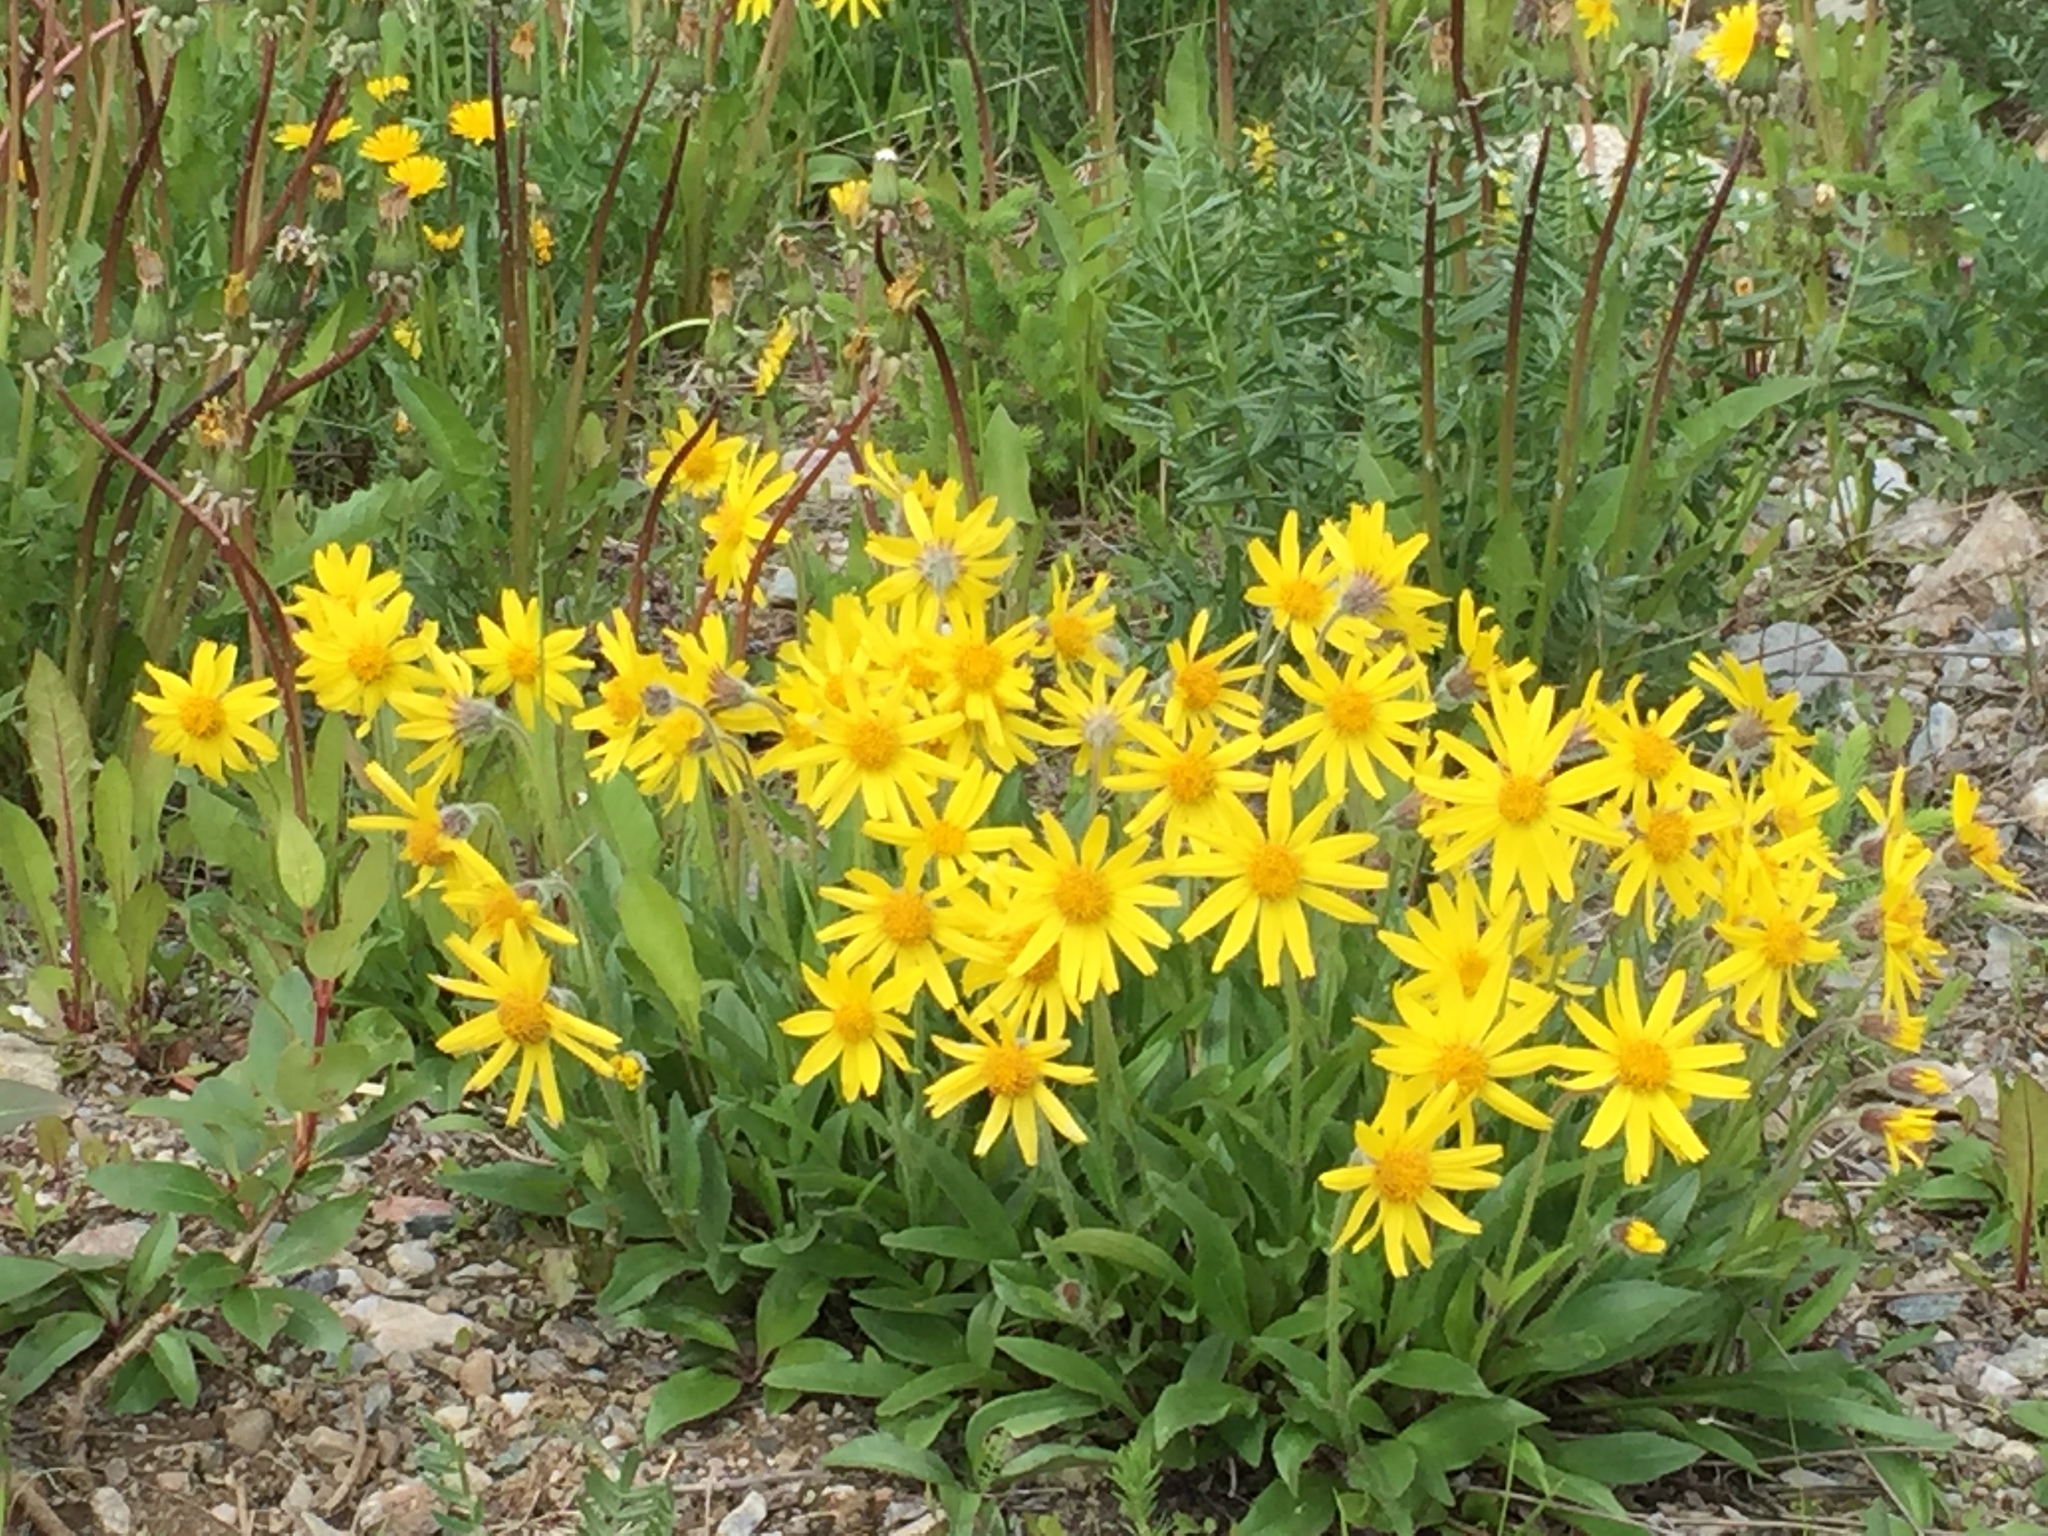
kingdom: Plantae
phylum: Tracheophyta
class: Magnoliopsida
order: Asterales
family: Asteraceae
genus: Arnica
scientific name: Arnica angustifolia
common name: Arctic arnica
